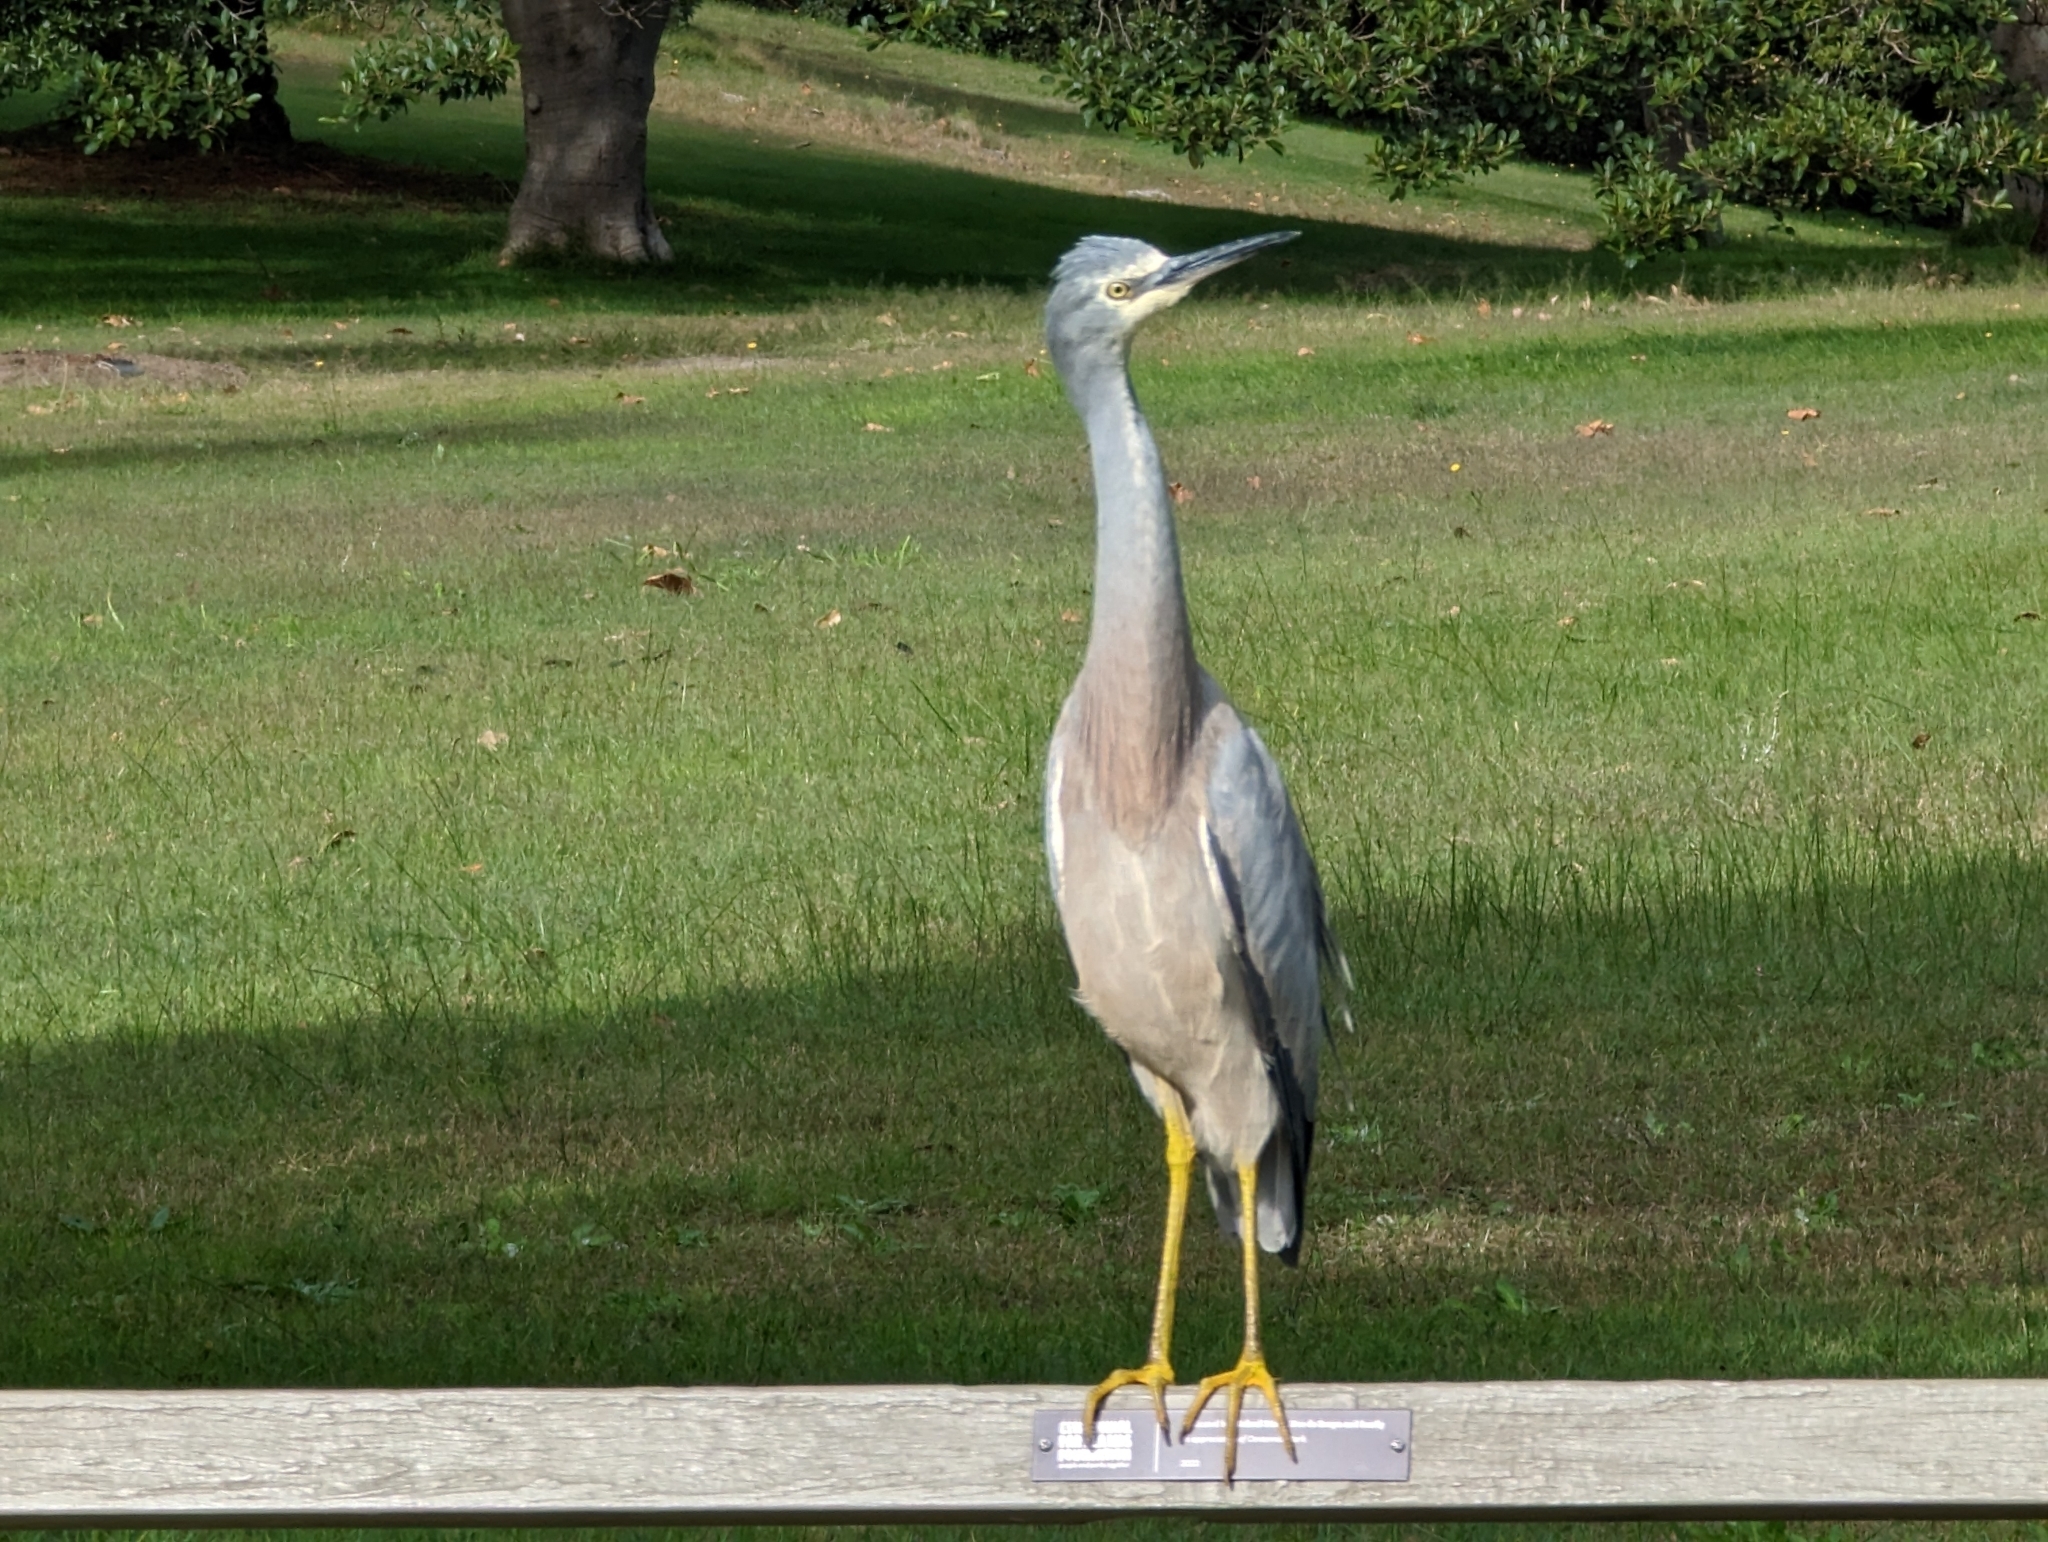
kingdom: Animalia
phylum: Chordata
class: Aves
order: Pelecaniformes
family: Ardeidae
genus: Egretta
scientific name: Egretta novaehollandiae
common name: White-faced heron
